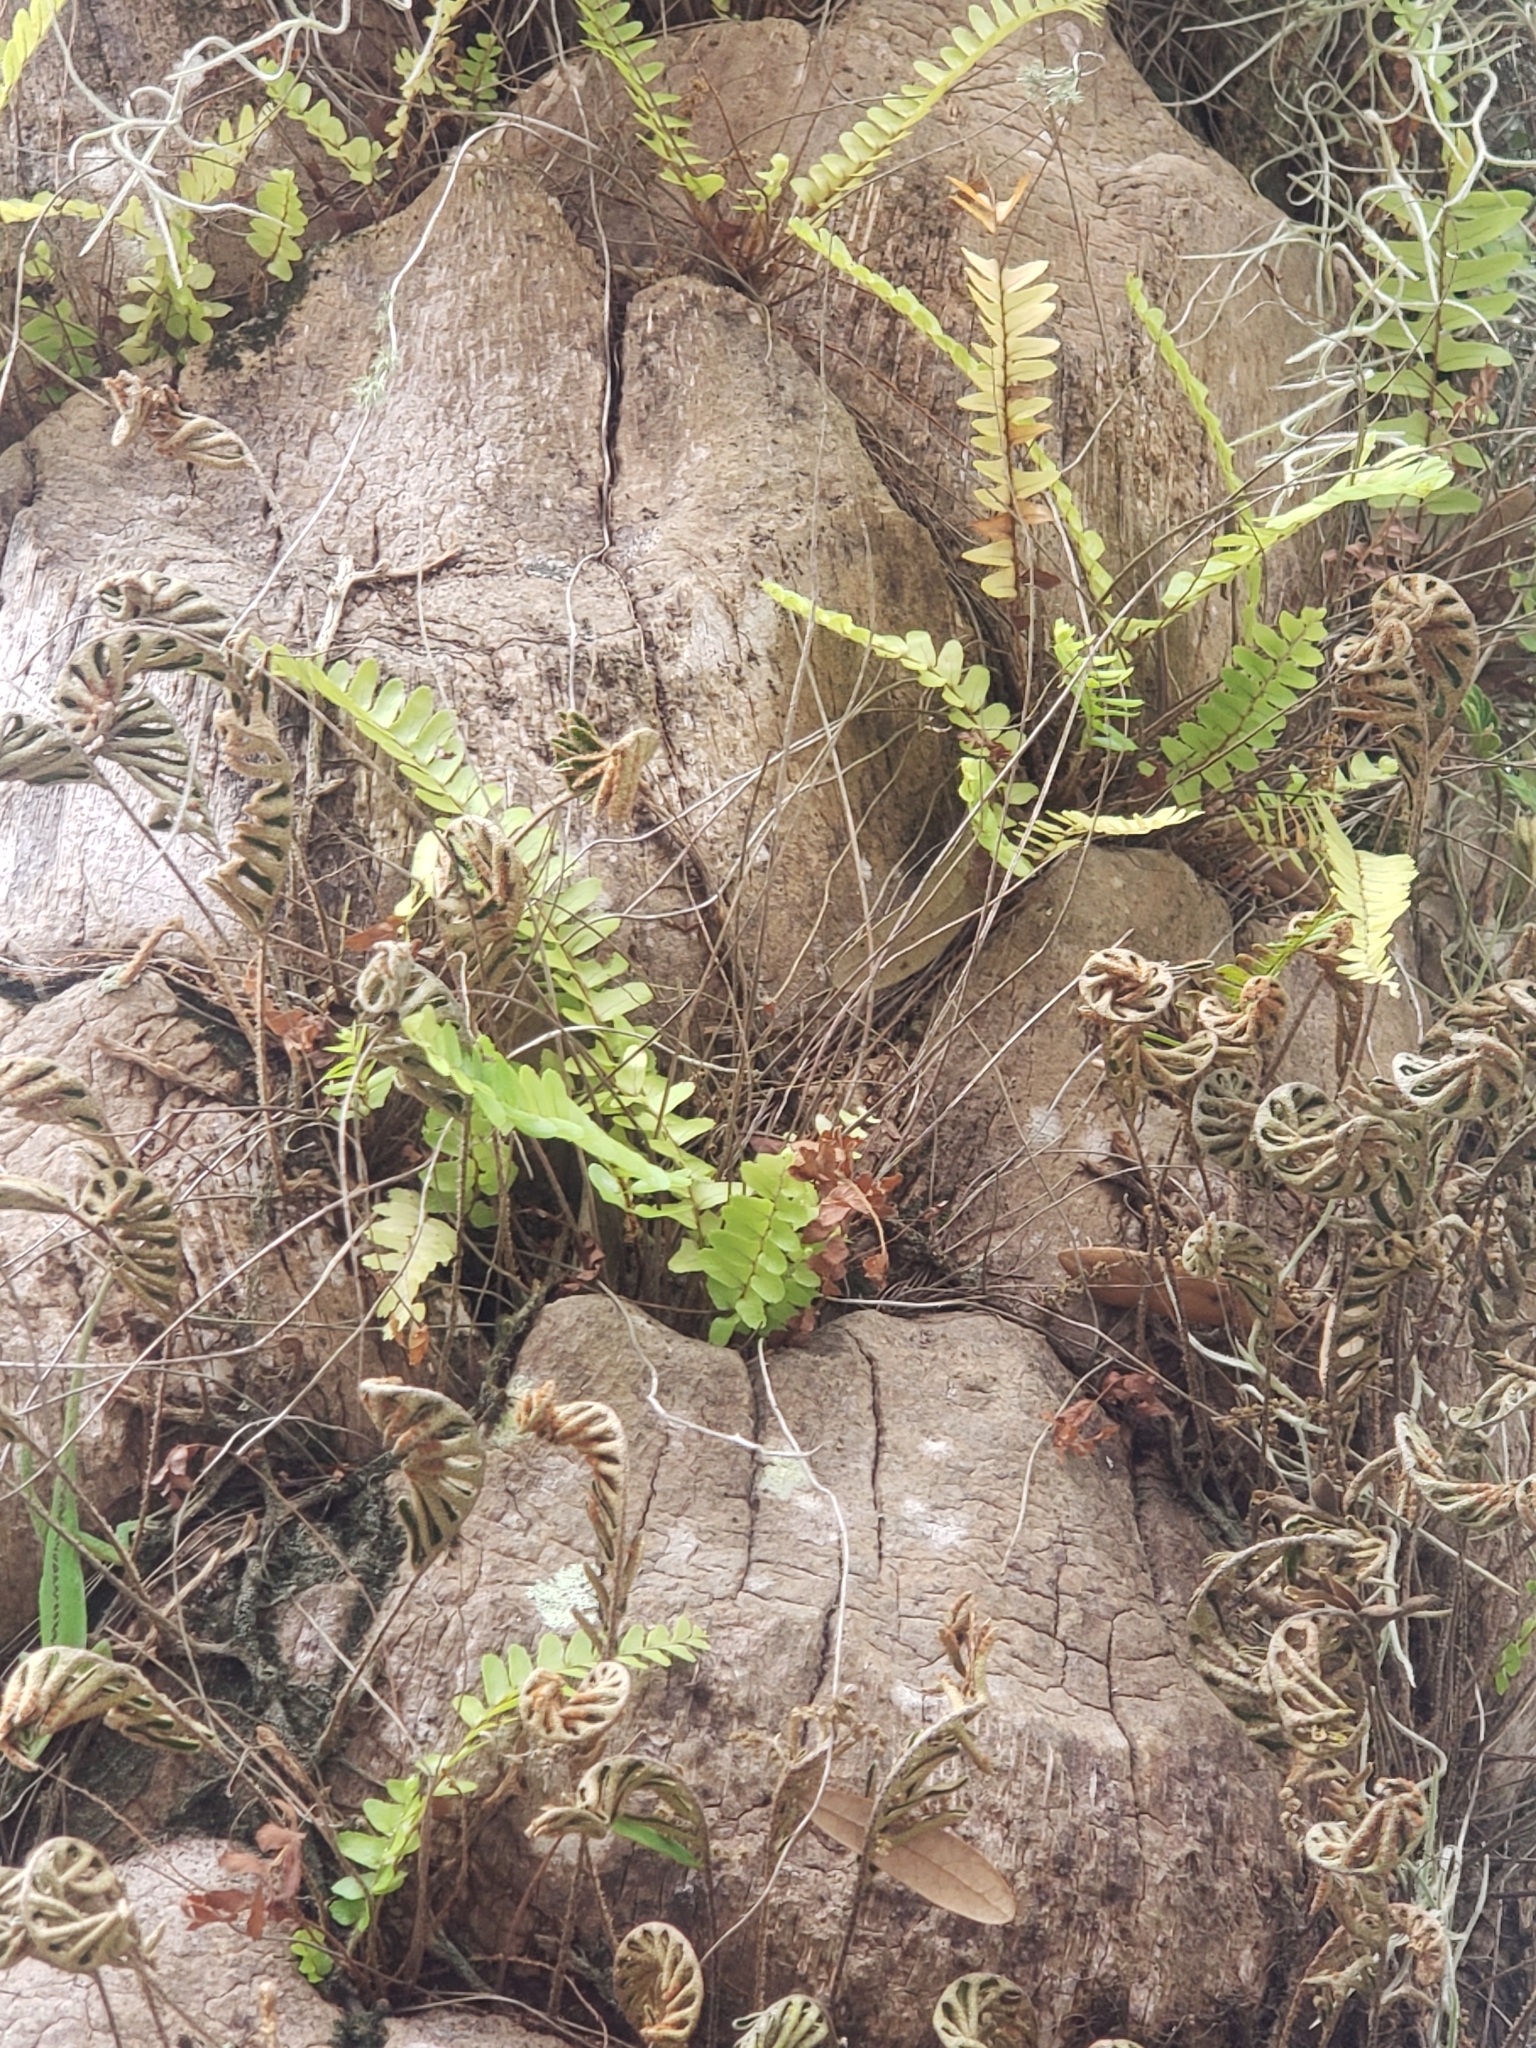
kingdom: Plantae
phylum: Tracheophyta
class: Polypodiopsida
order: Polypodiales
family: Polypodiaceae
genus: Pleopeltis
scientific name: Pleopeltis michauxiana
